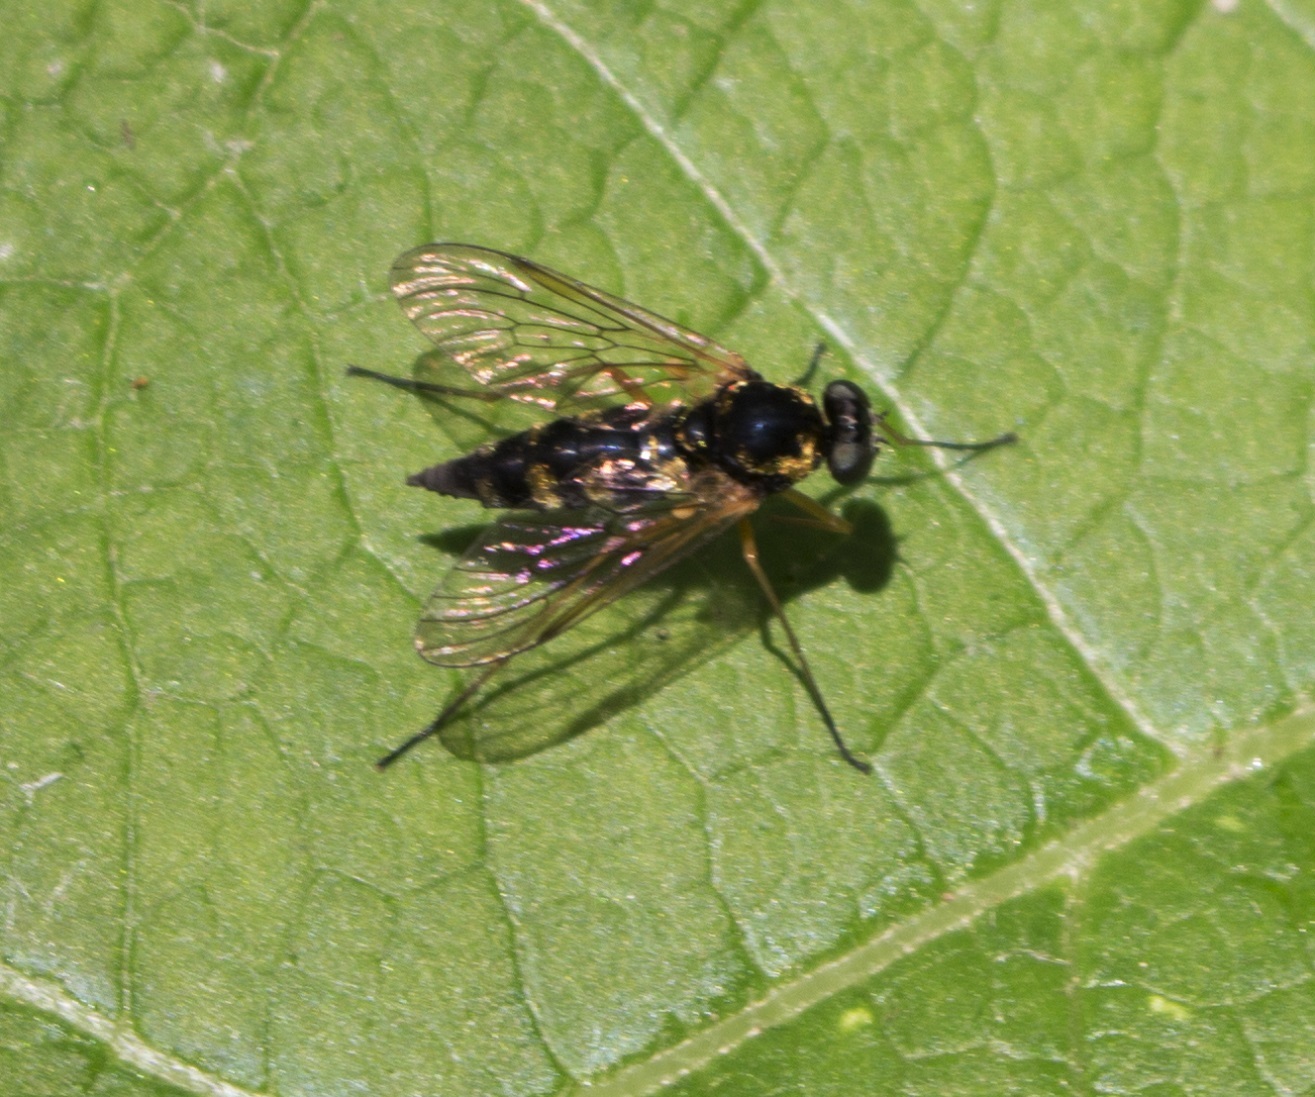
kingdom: Animalia
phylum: Arthropoda
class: Insecta
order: Diptera
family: Rhagionidae
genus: Chrysopilus
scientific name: Chrysopilus ornatus
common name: Ornate snipe fly
